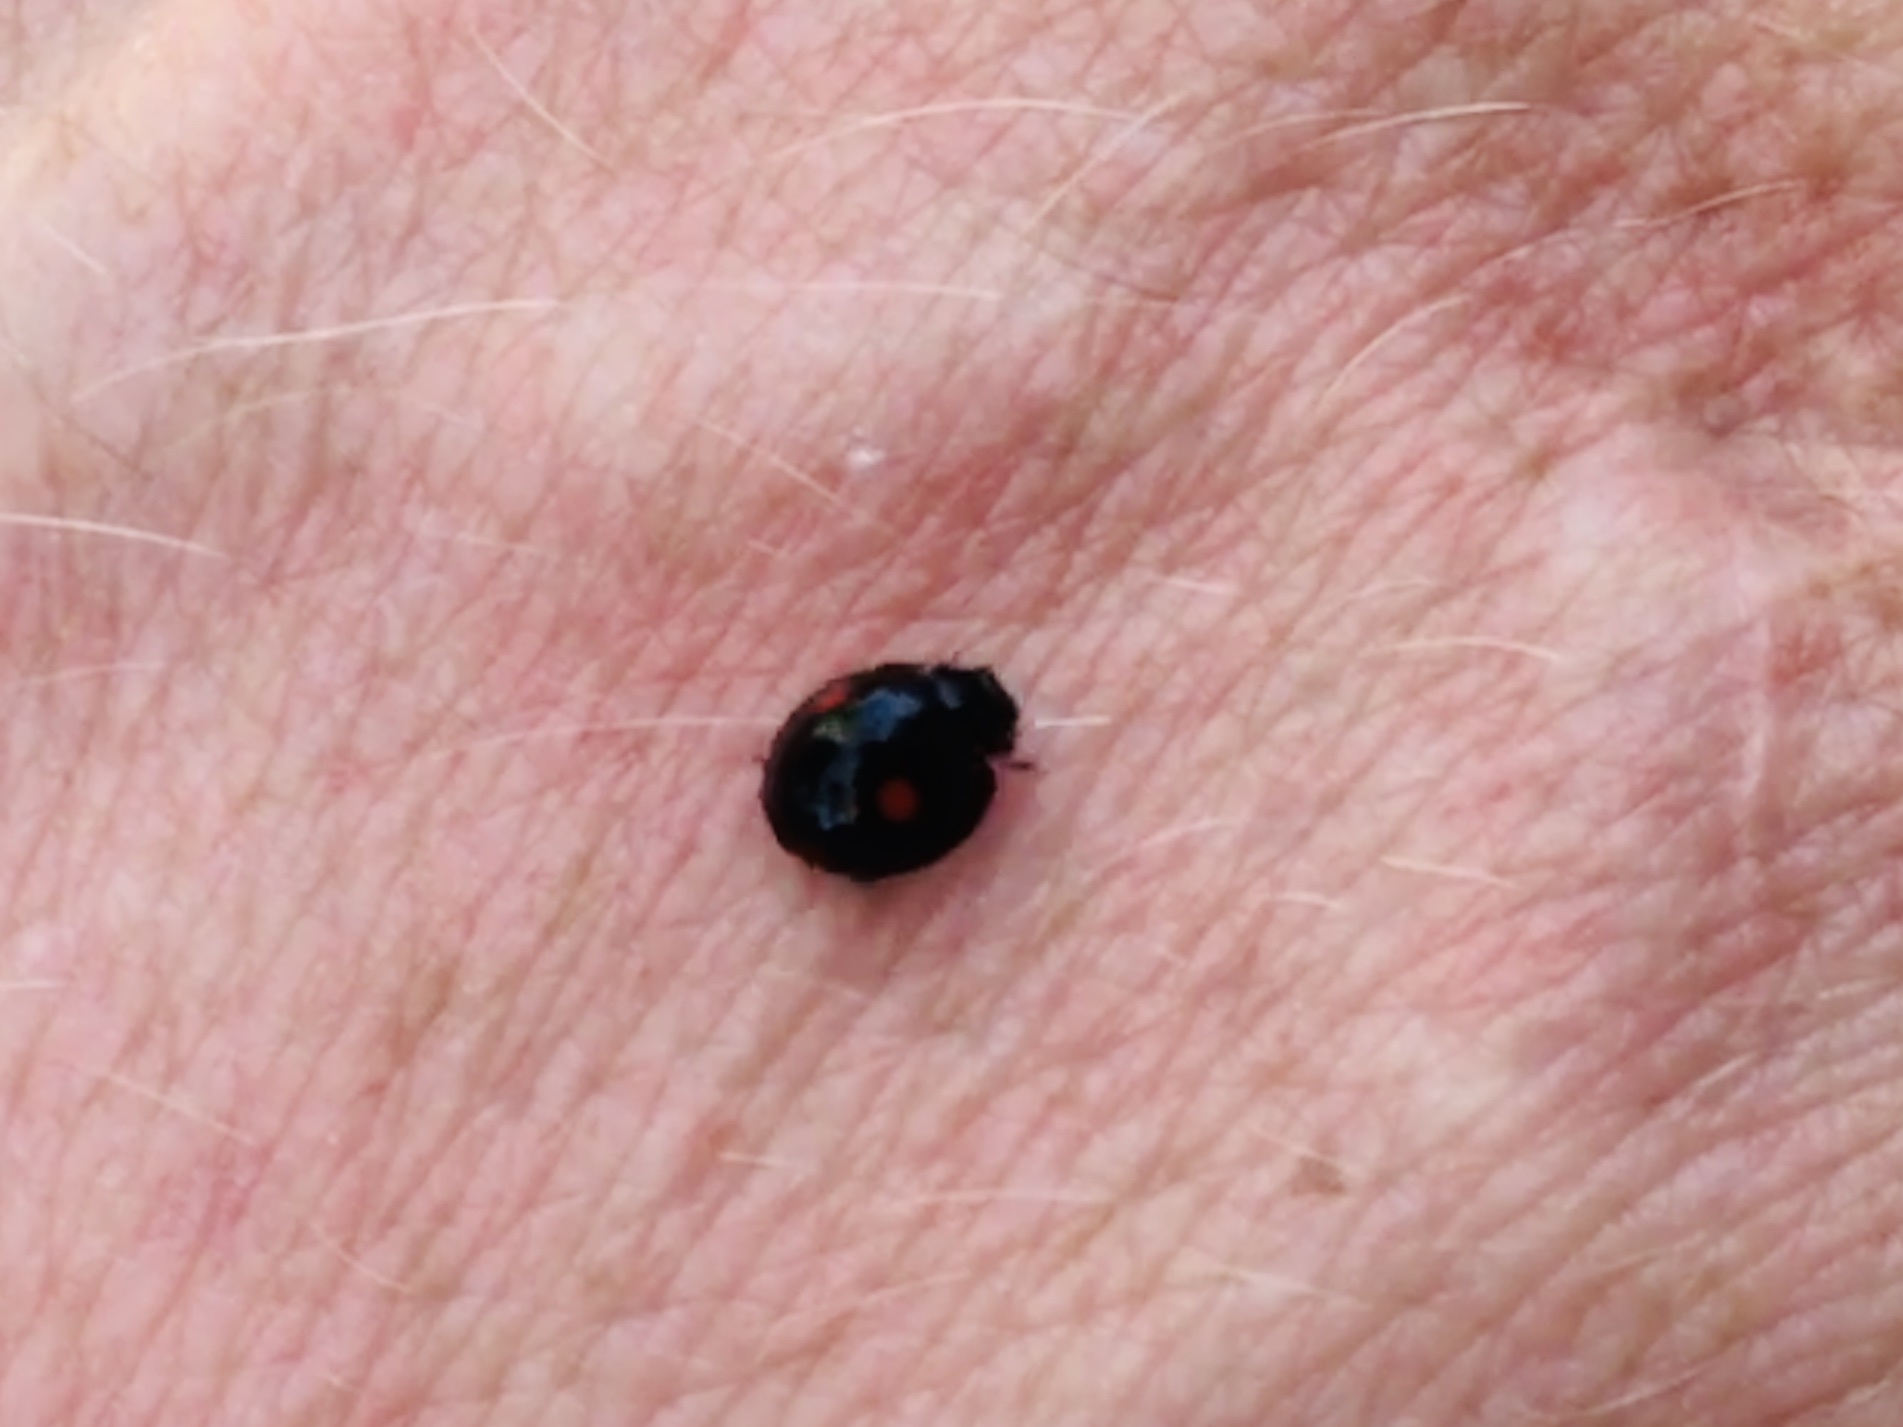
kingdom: Animalia
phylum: Arthropoda
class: Insecta
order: Coleoptera
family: Coccinellidae
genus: Chilocorus
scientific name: Chilocorus stigma
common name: Twicestabbed lady beetle
